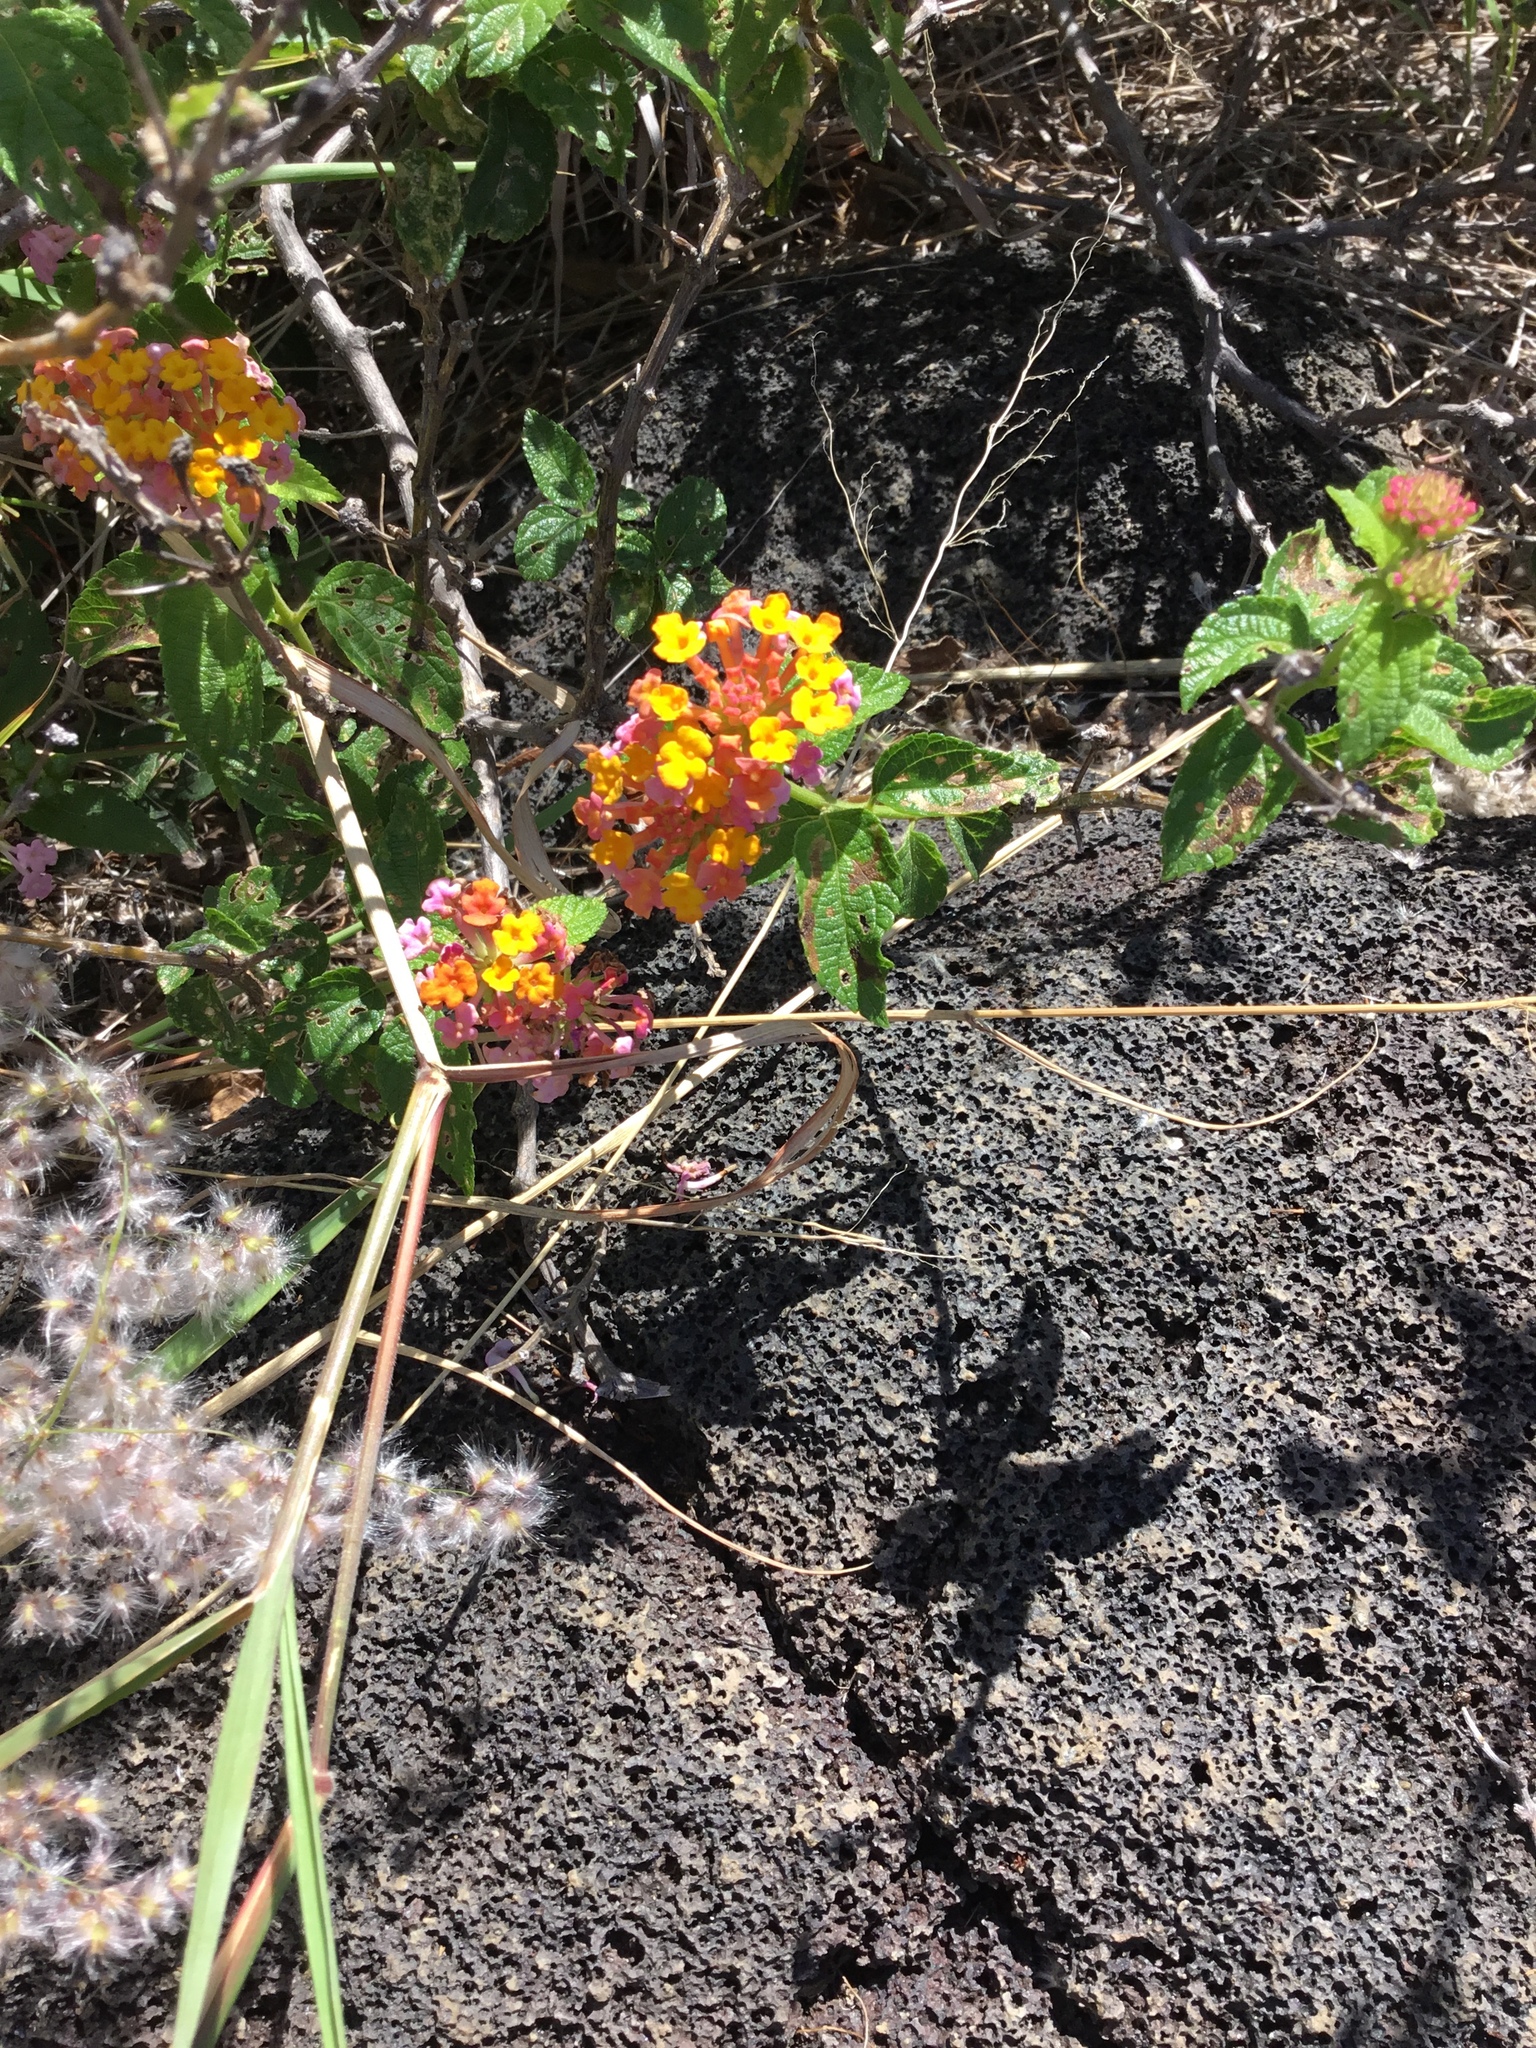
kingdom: Plantae
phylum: Tracheophyta
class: Magnoliopsida
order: Lamiales
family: Verbenaceae
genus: Lantana
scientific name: Lantana camara
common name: Lantana
